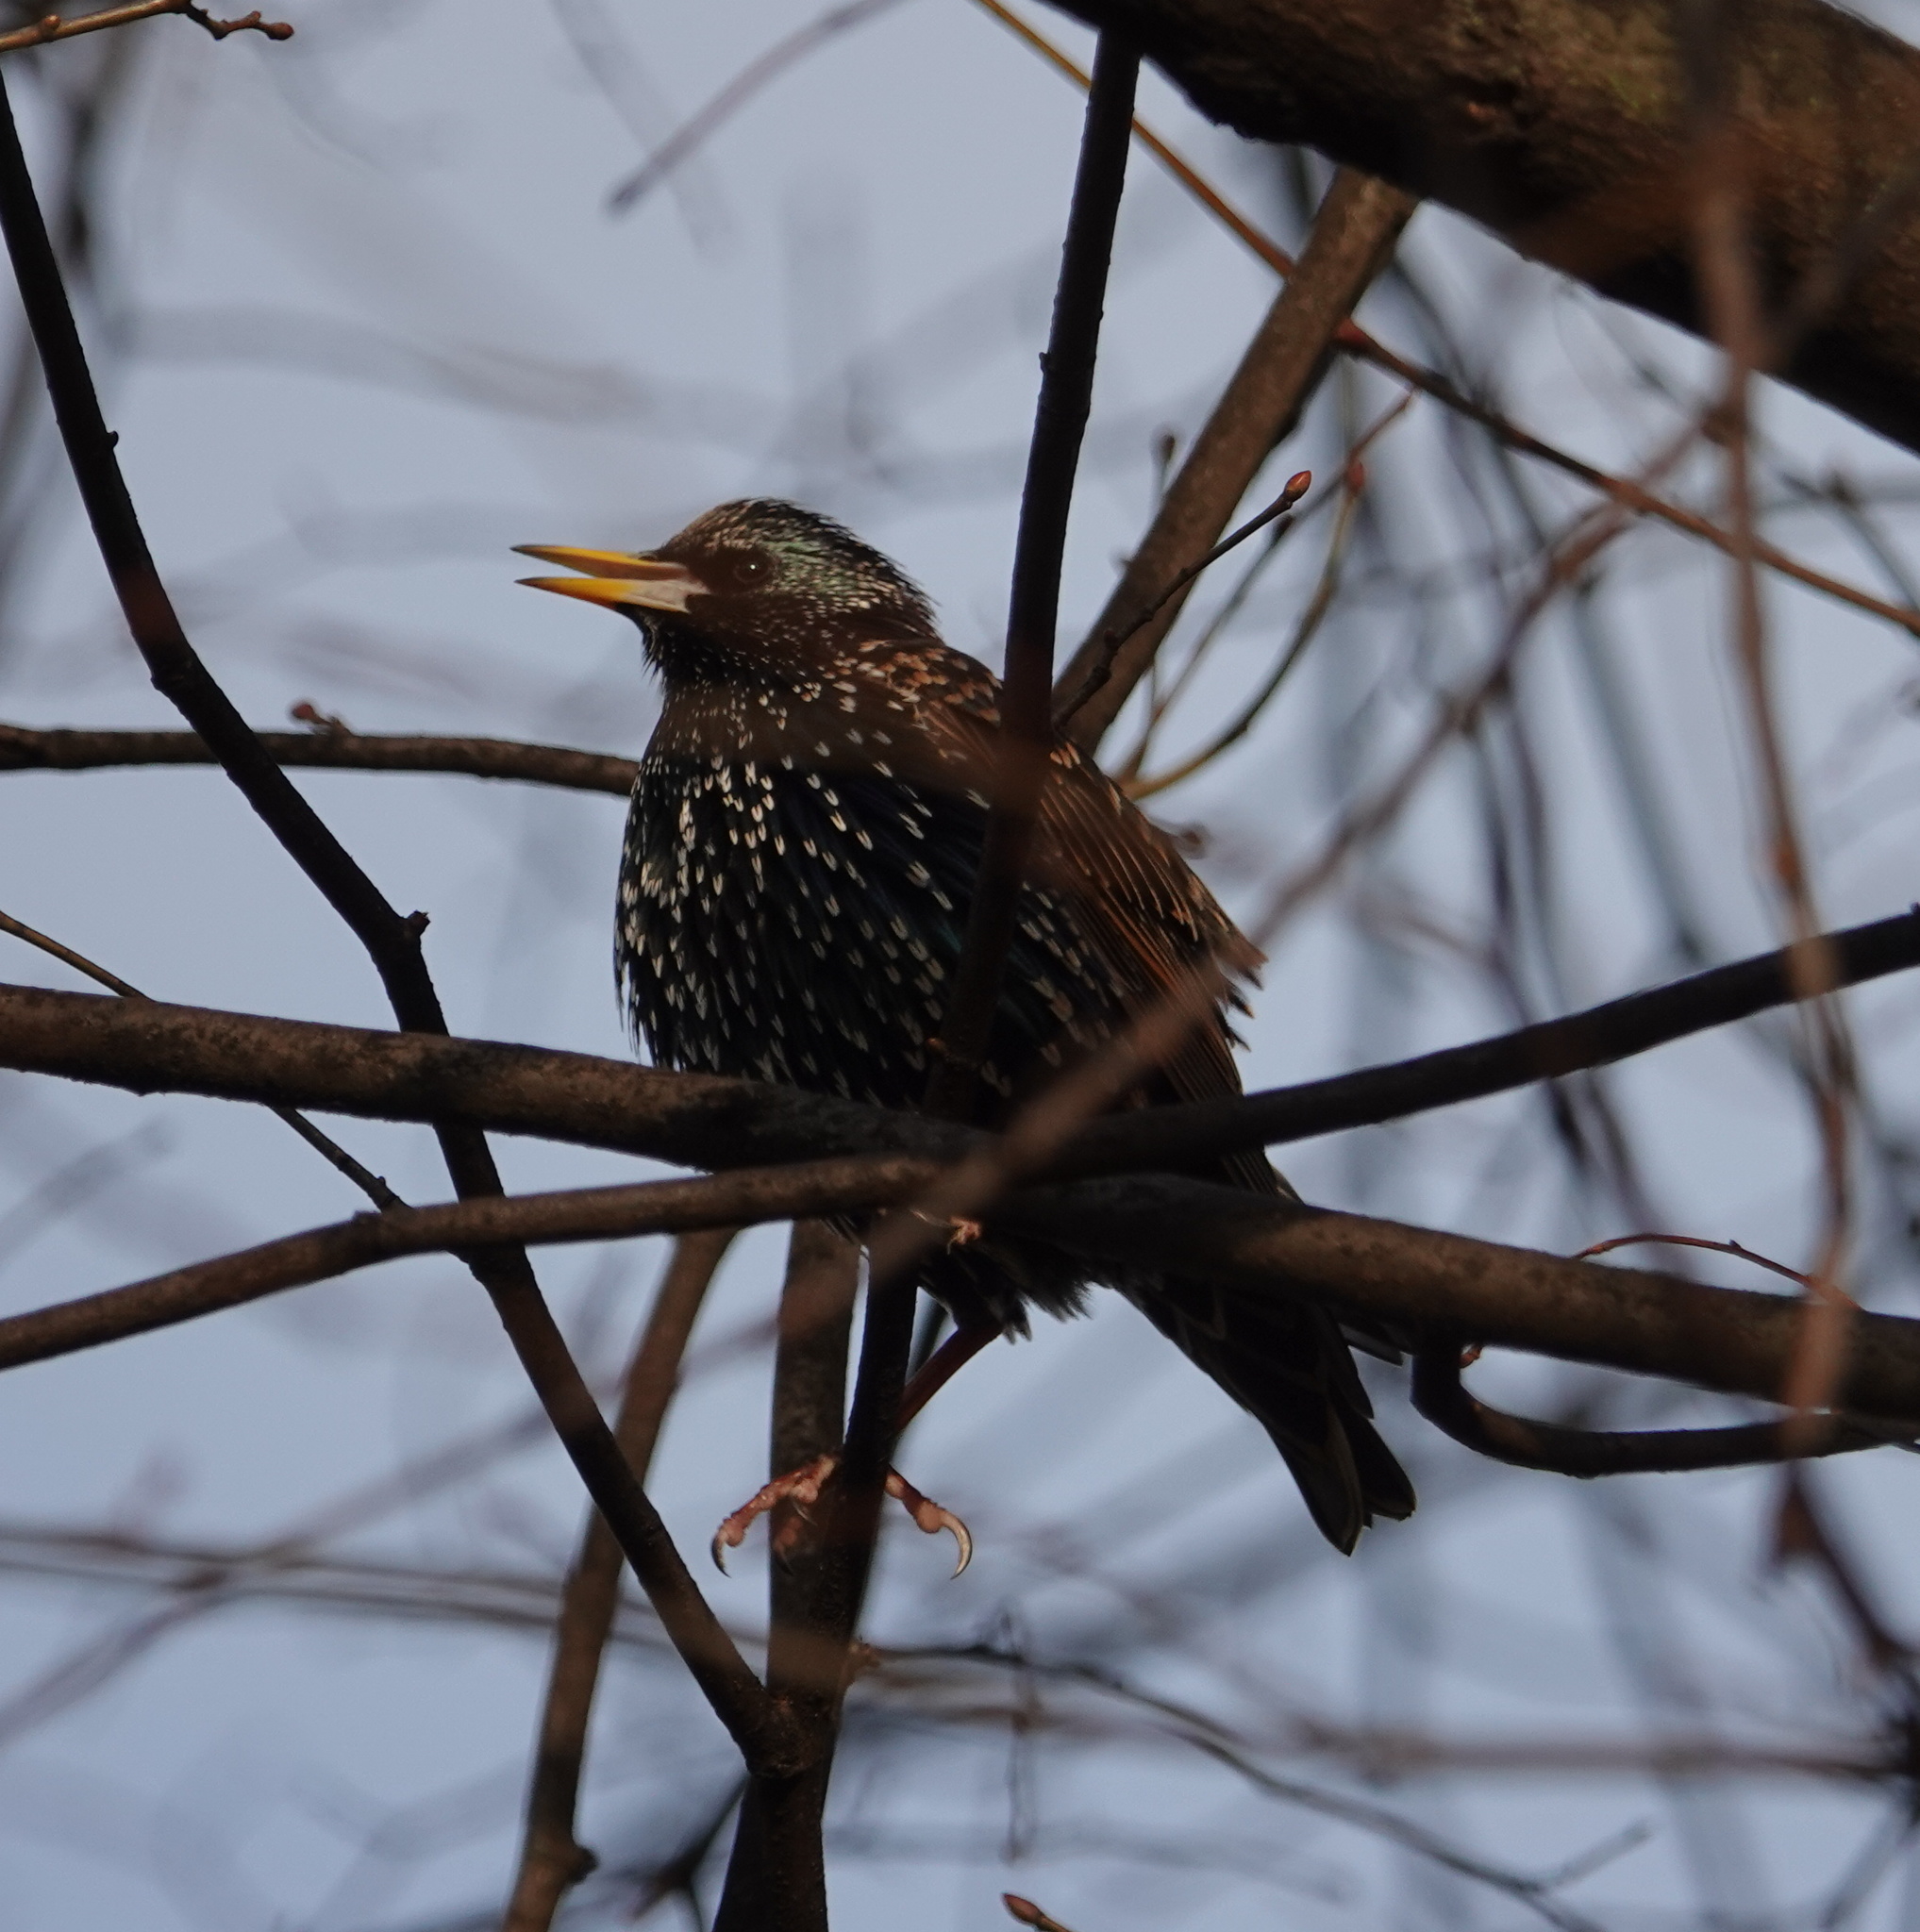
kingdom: Animalia
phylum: Chordata
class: Aves
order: Passeriformes
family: Sturnidae
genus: Sturnus
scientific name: Sturnus vulgaris
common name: Common starling
